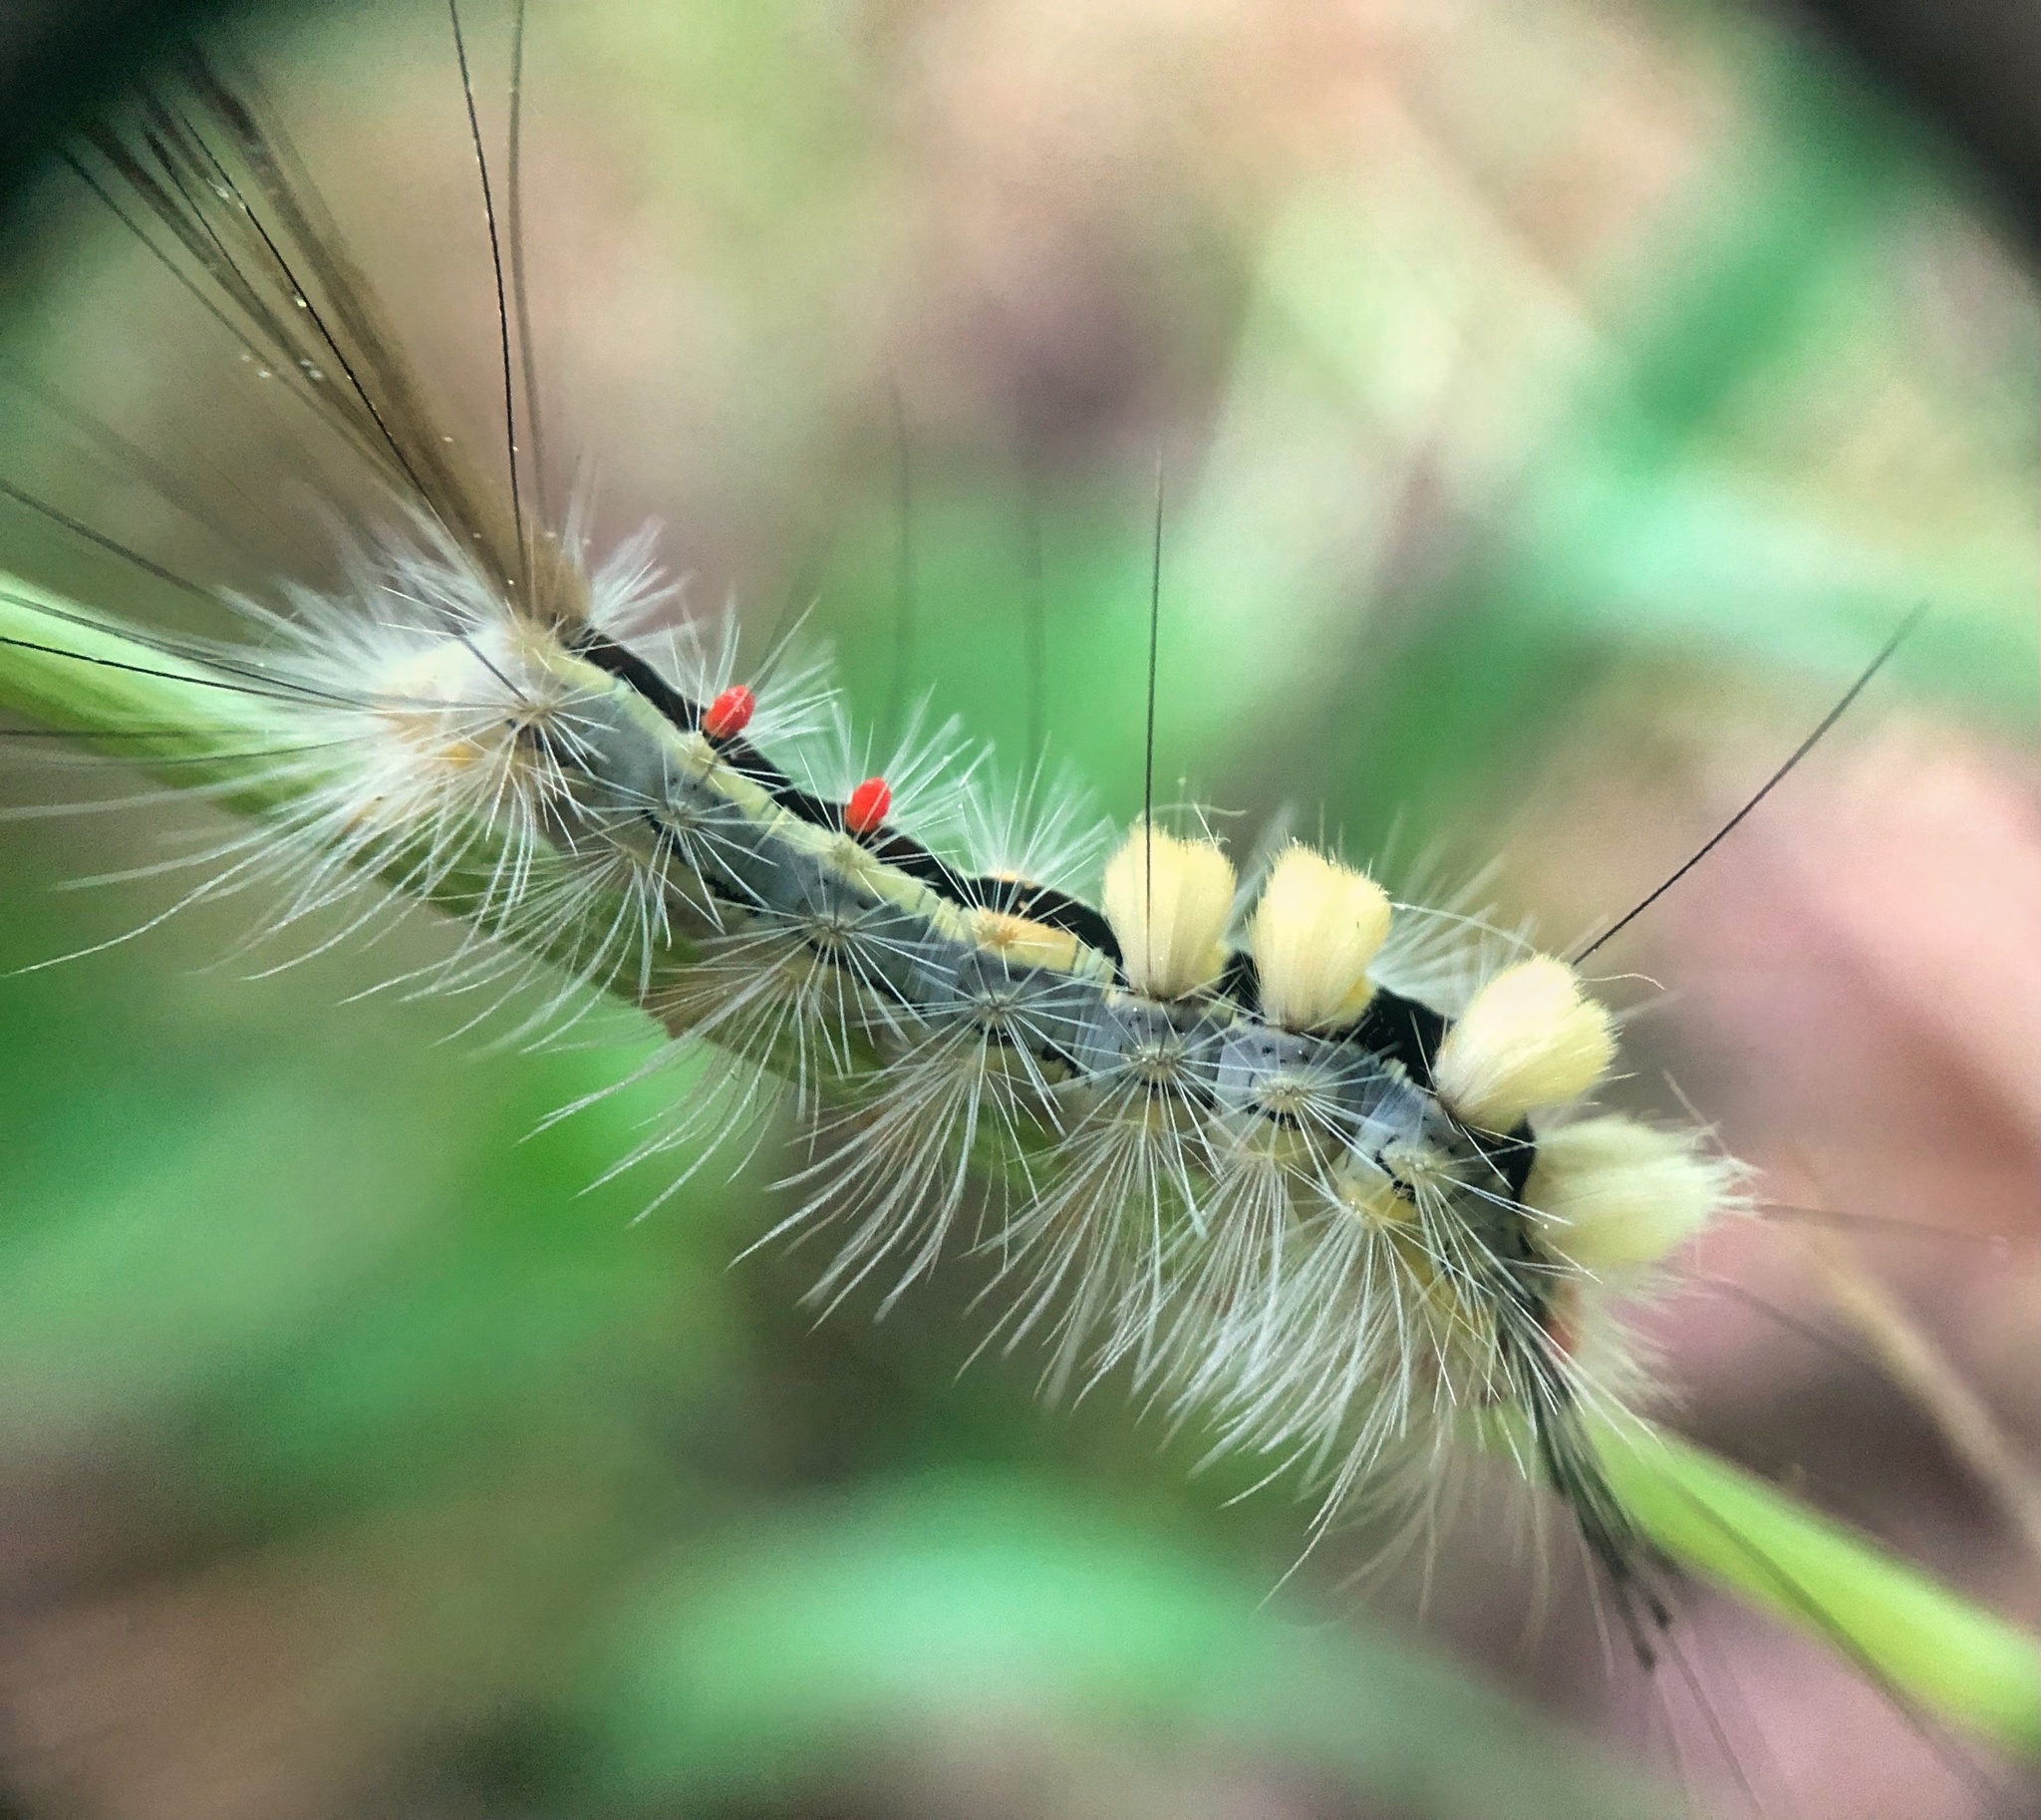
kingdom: Animalia
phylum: Arthropoda
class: Insecta
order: Lepidoptera
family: Erebidae
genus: Orgyia
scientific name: Orgyia leucostigma
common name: White-marked tussock moth
